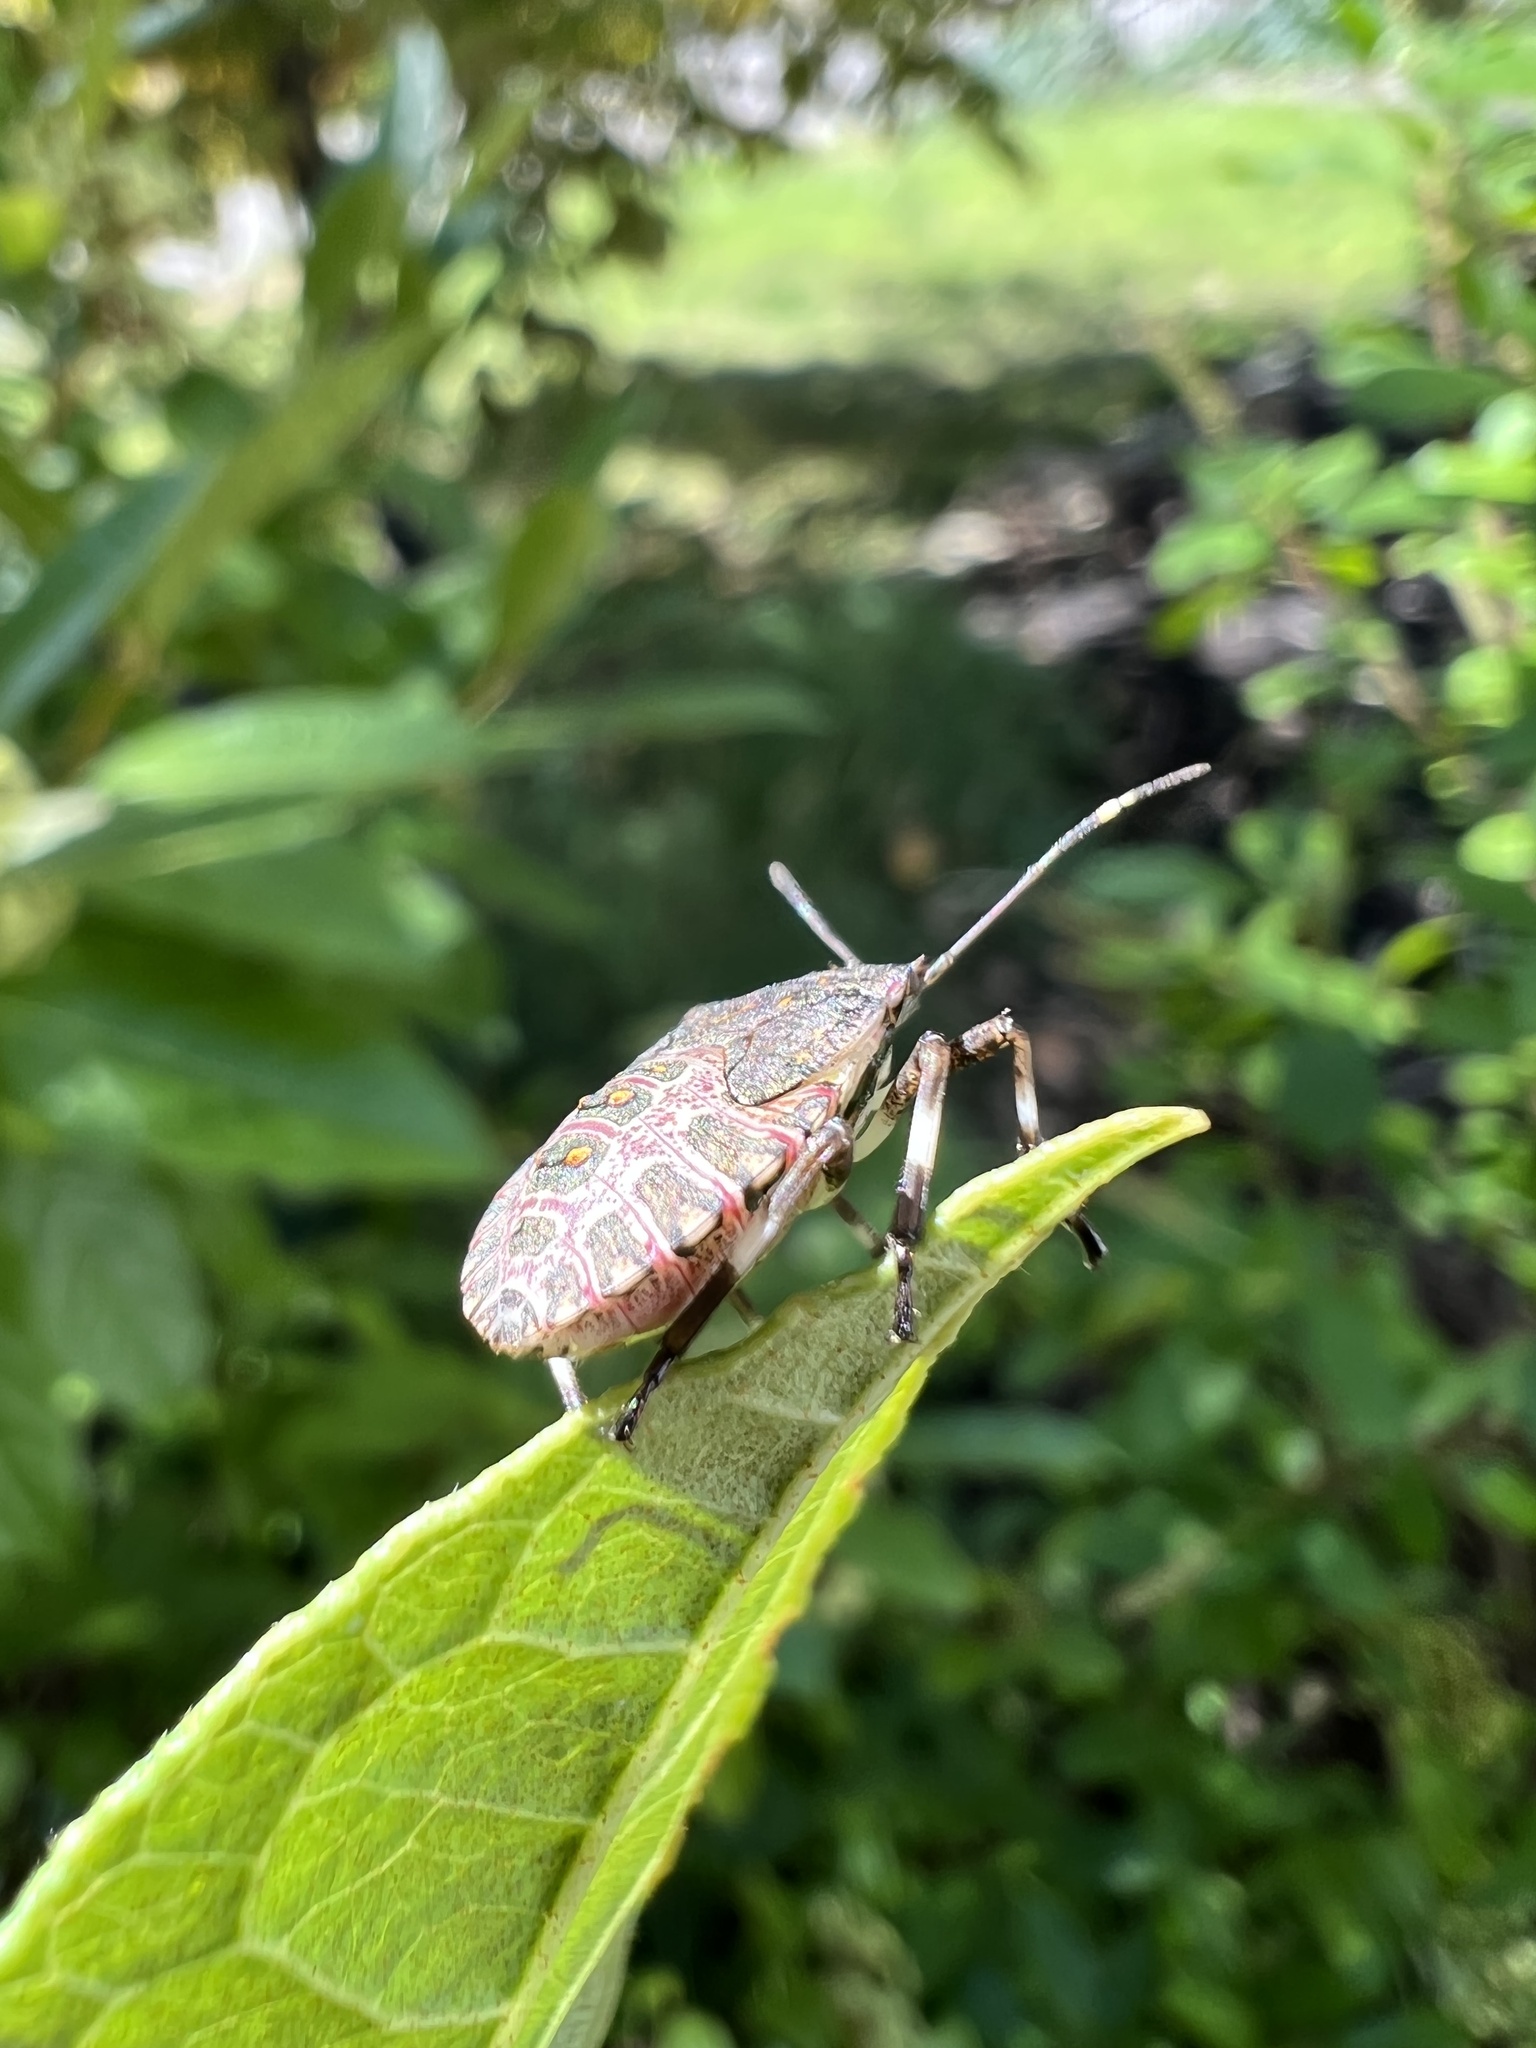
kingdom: Animalia
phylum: Arthropoda
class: Insecta
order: Hemiptera
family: Pentatomidae
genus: Halyomorpha
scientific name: Halyomorpha halys
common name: Brown marmorated stink bug
